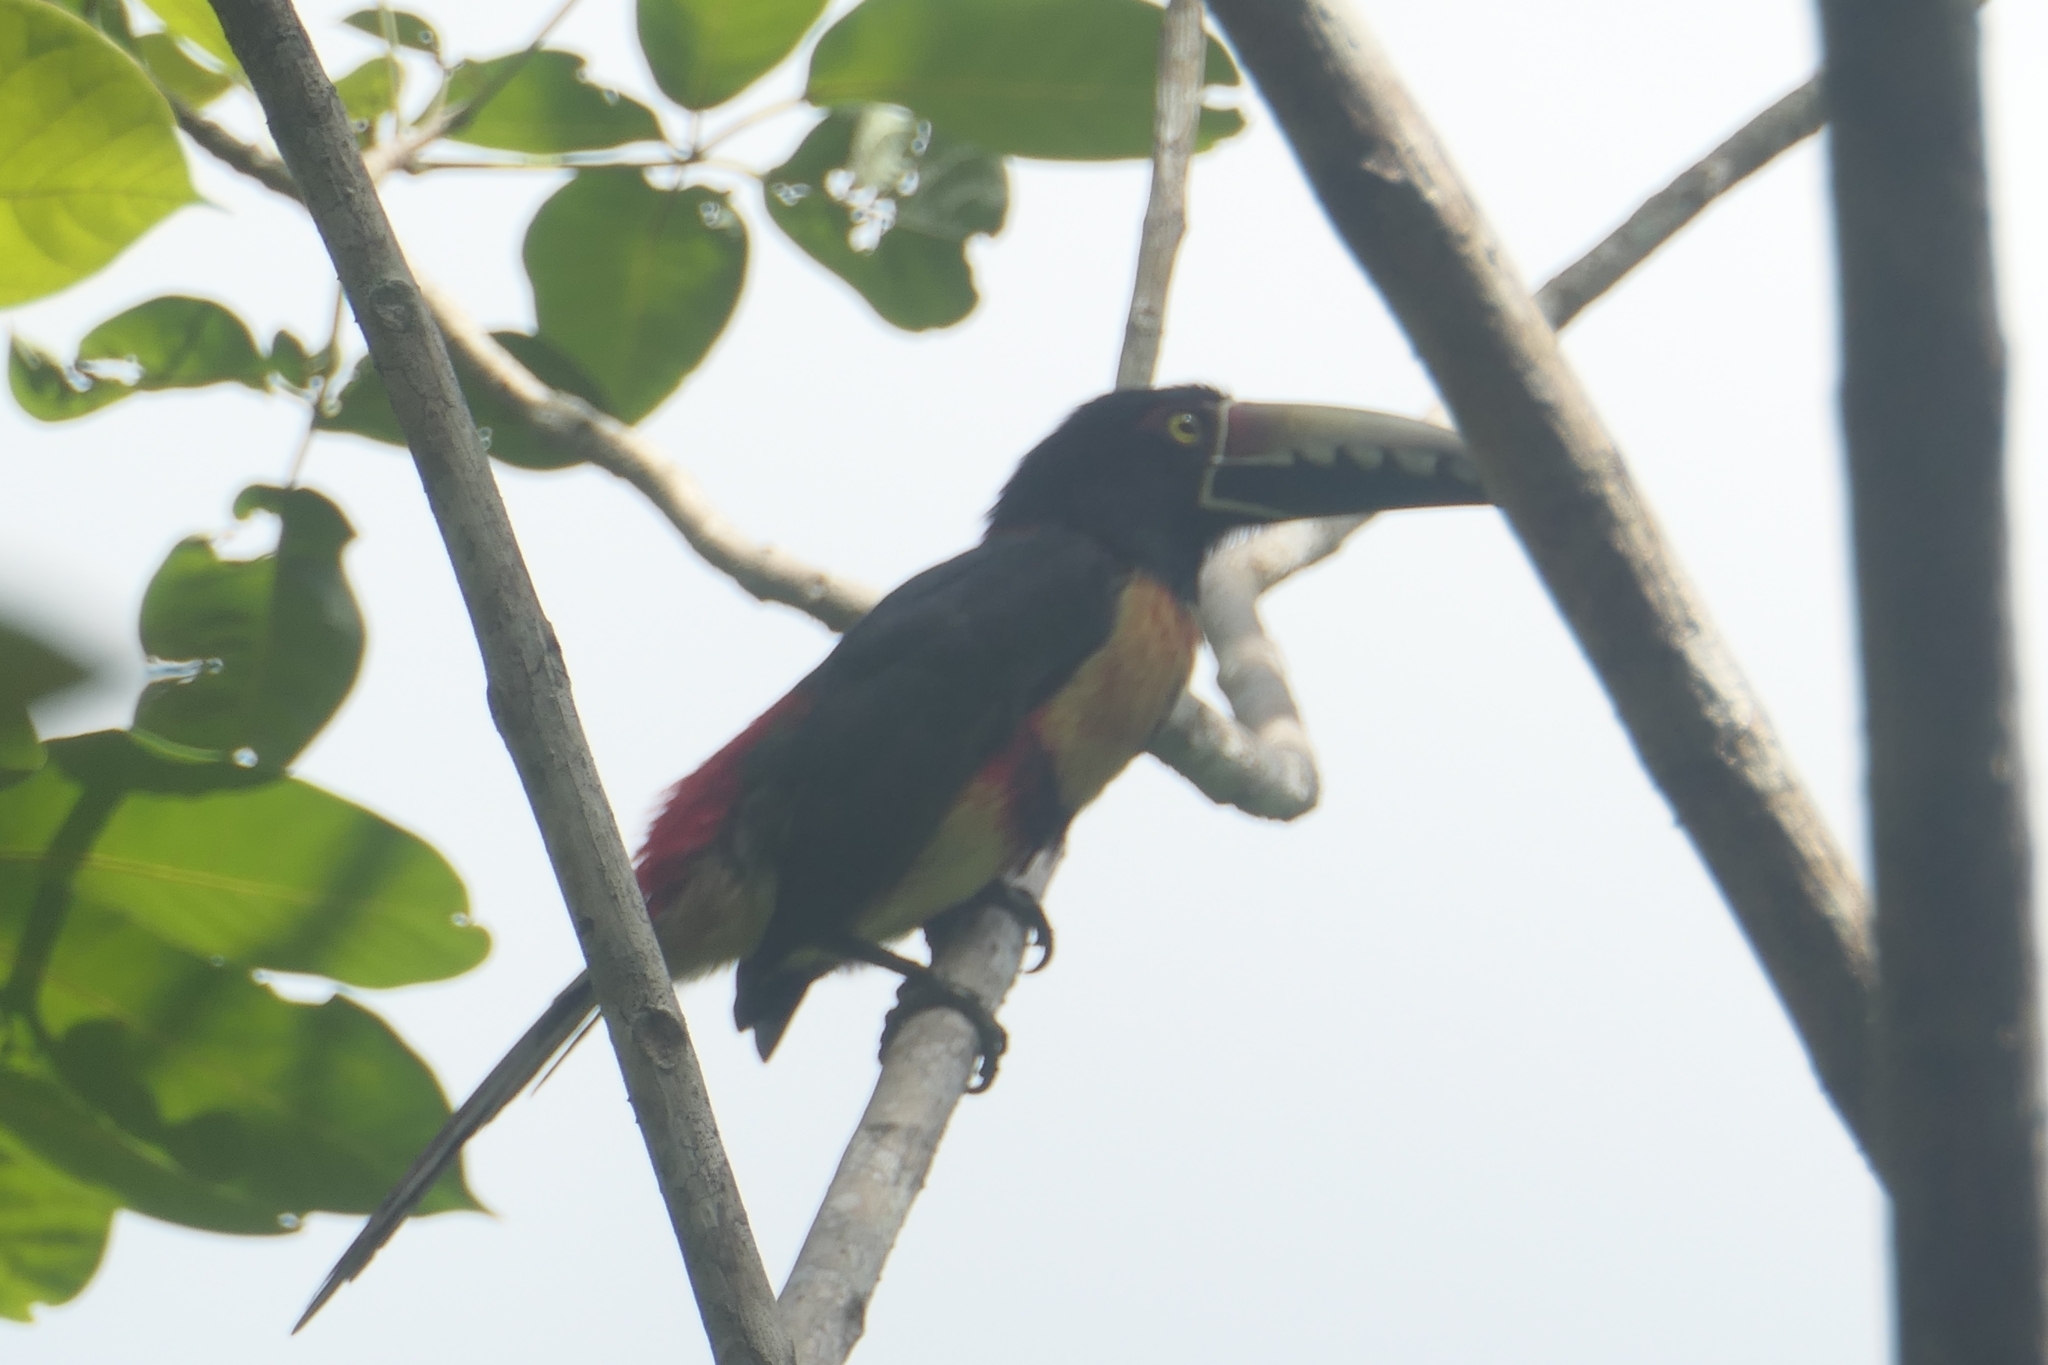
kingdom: Animalia
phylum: Chordata
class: Aves
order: Piciformes
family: Ramphastidae
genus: Pteroglossus
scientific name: Pteroglossus torquatus
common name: Collared aracari
